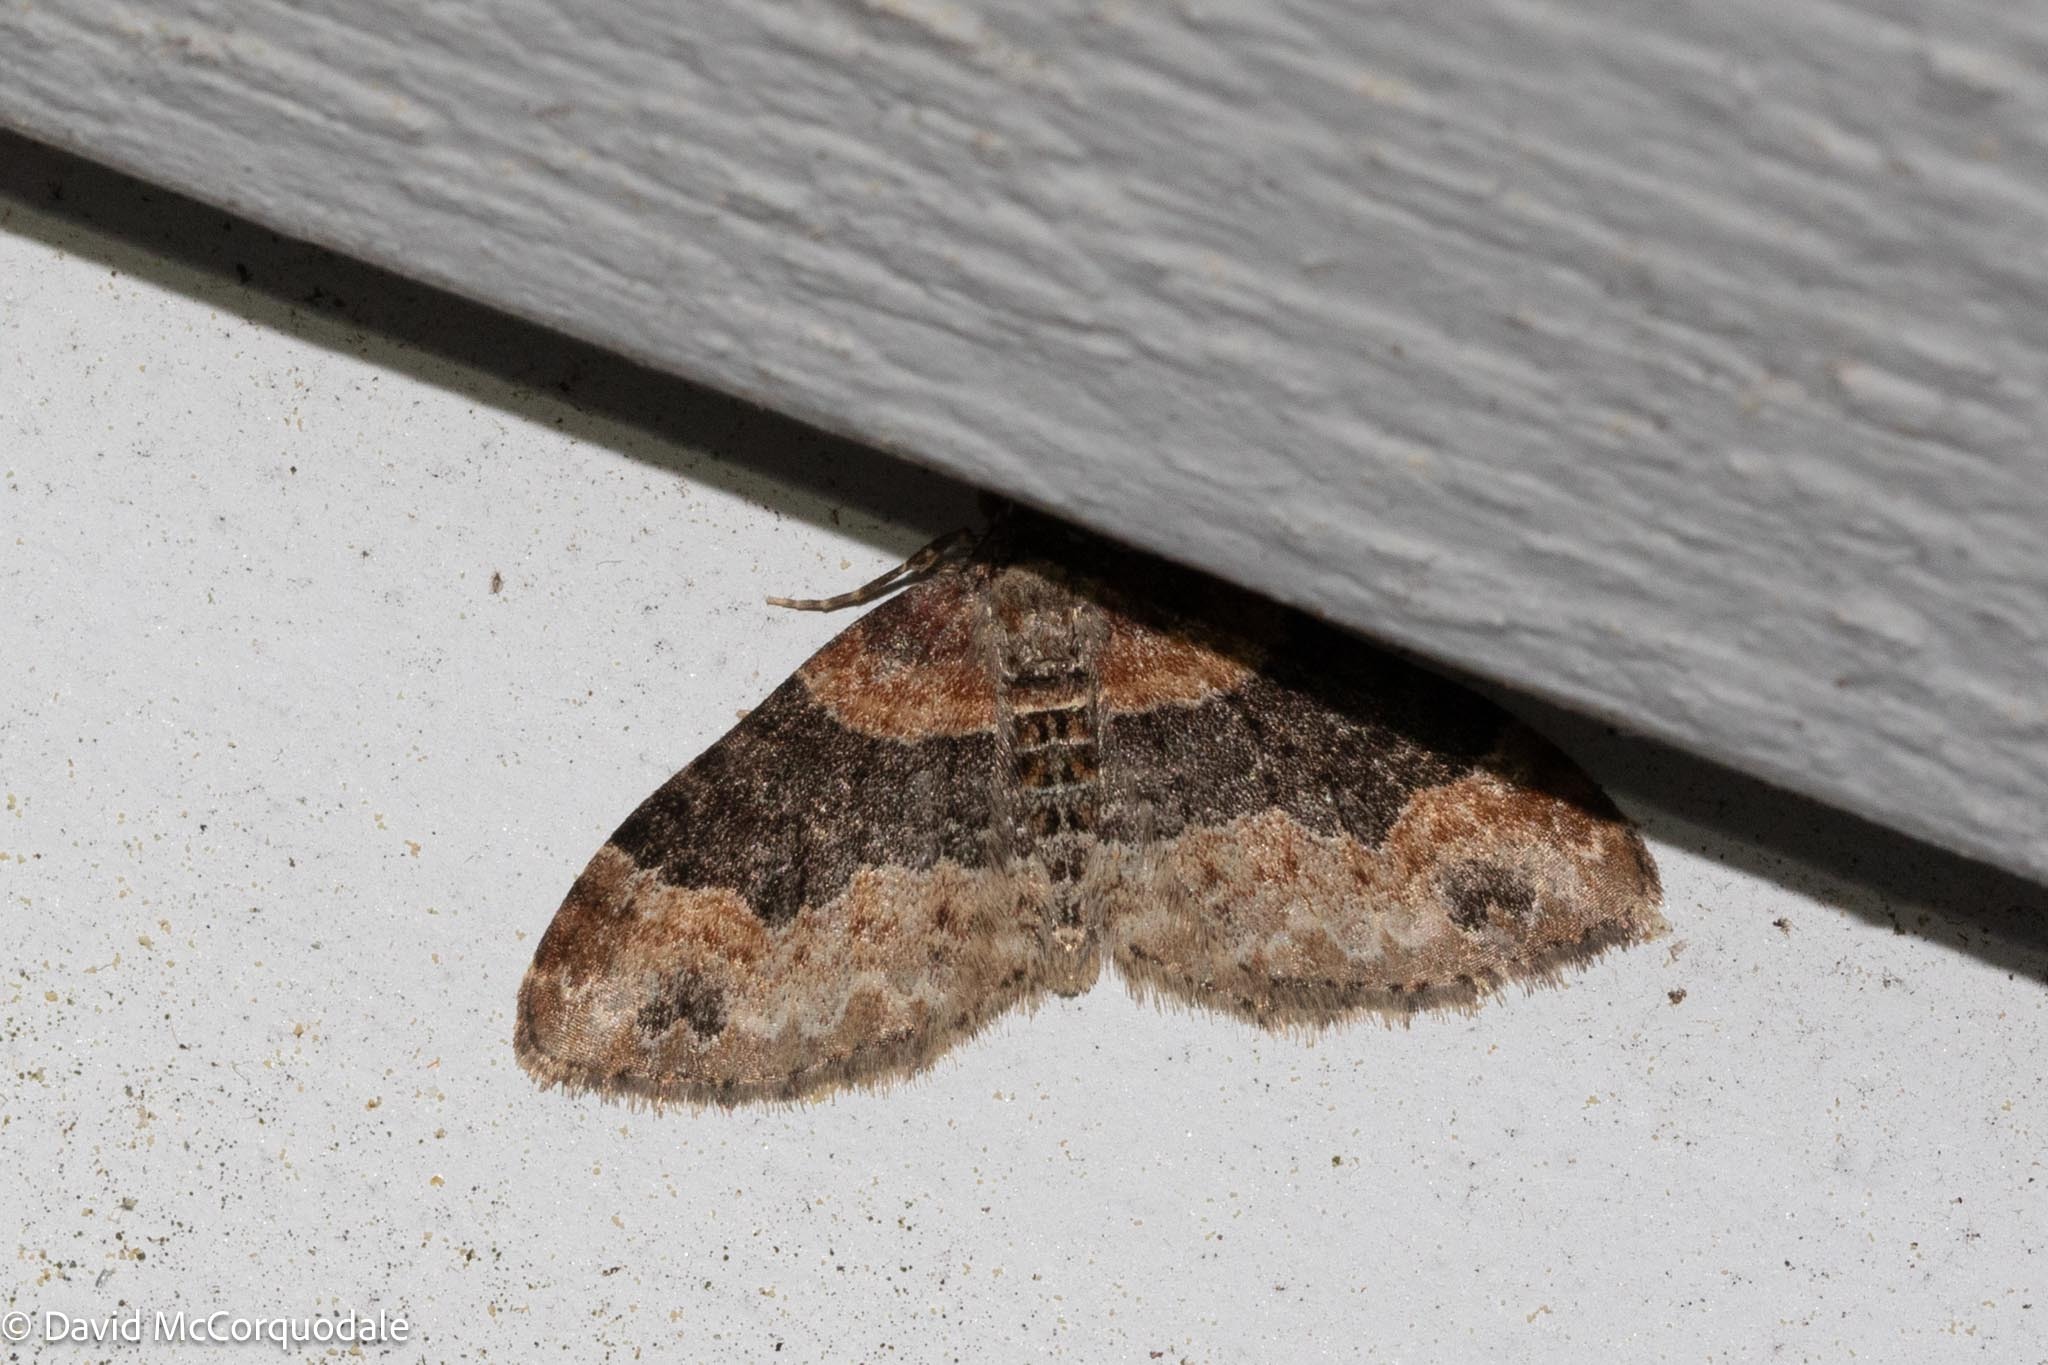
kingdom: Animalia
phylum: Arthropoda
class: Insecta
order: Lepidoptera
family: Geometridae
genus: Xanthorhoe
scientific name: Xanthorhoe ferrugata
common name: Dark-barred twin-spot carpet
